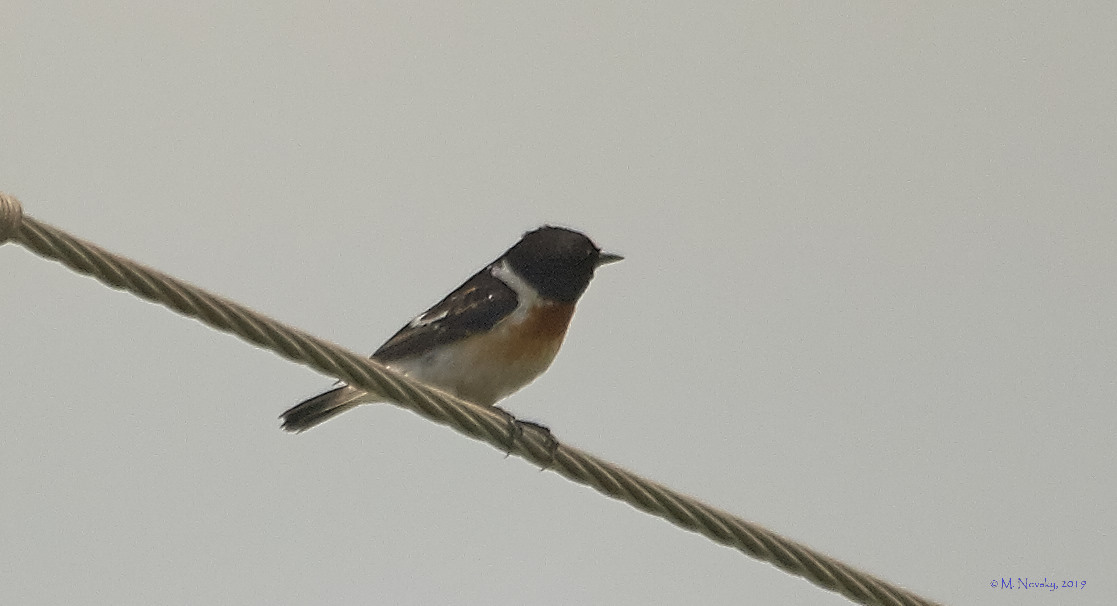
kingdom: Animalia
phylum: Chordata
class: Aves
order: Passeriformes
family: Muscicapidae
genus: Saxicola
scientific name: Saxicola rubicola
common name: European stonechat
